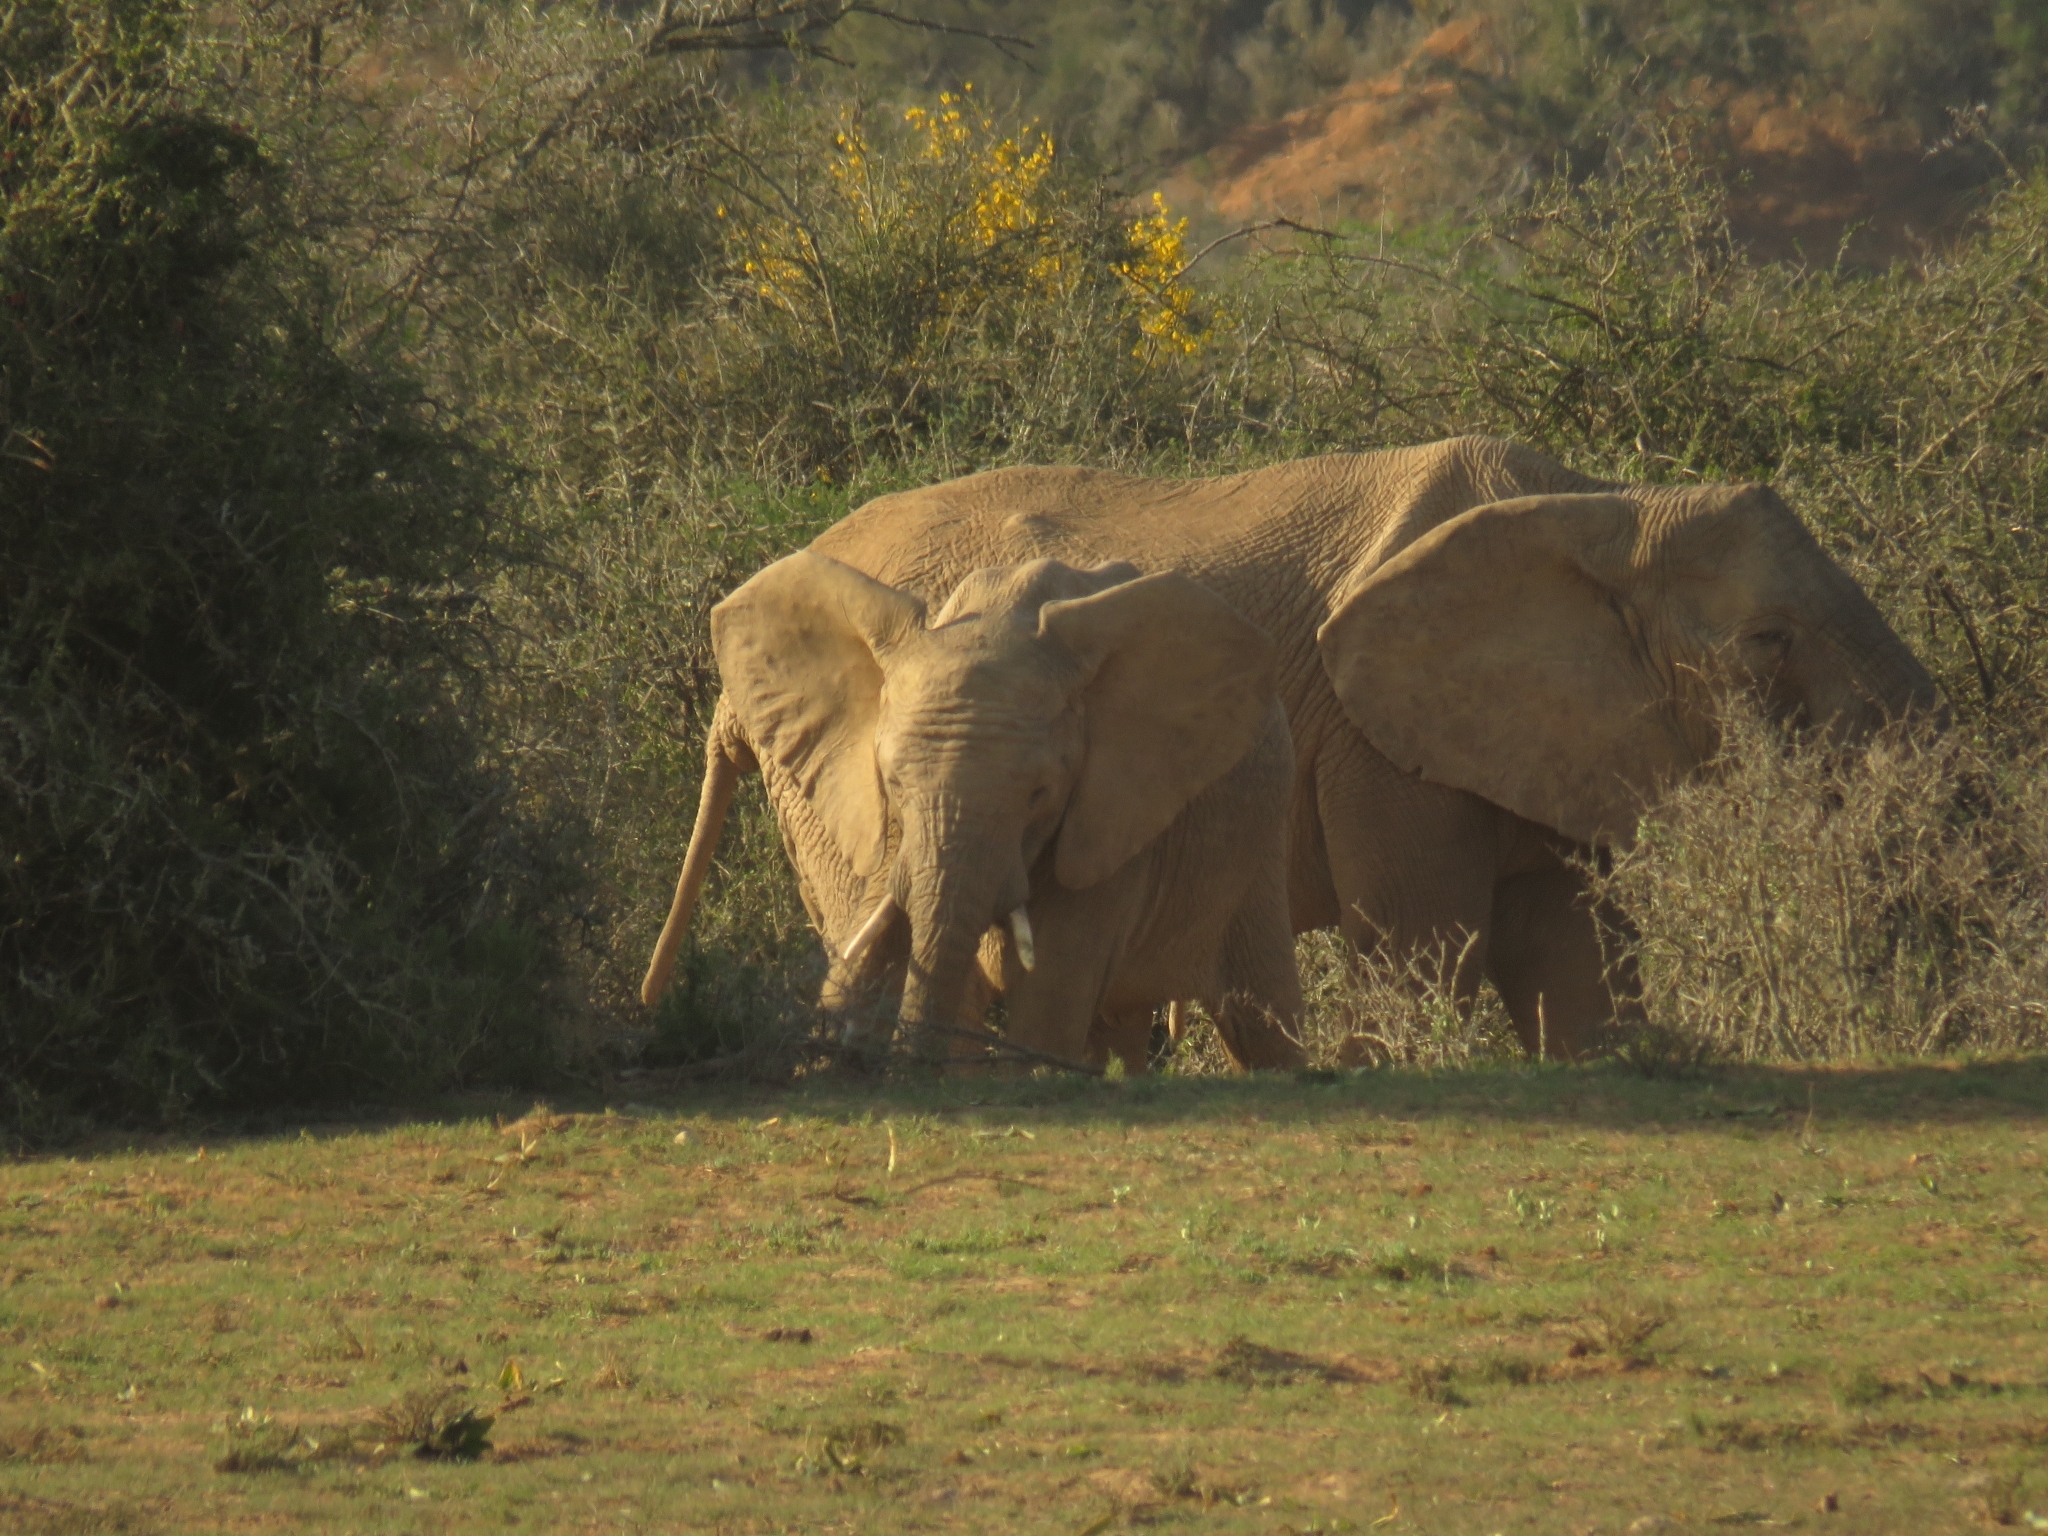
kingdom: Animalia
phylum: Chordata
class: Mammalia
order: Proboscidea
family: Elephantidae
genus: Loxodonta
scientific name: Loxodonta africana
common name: African elephant
